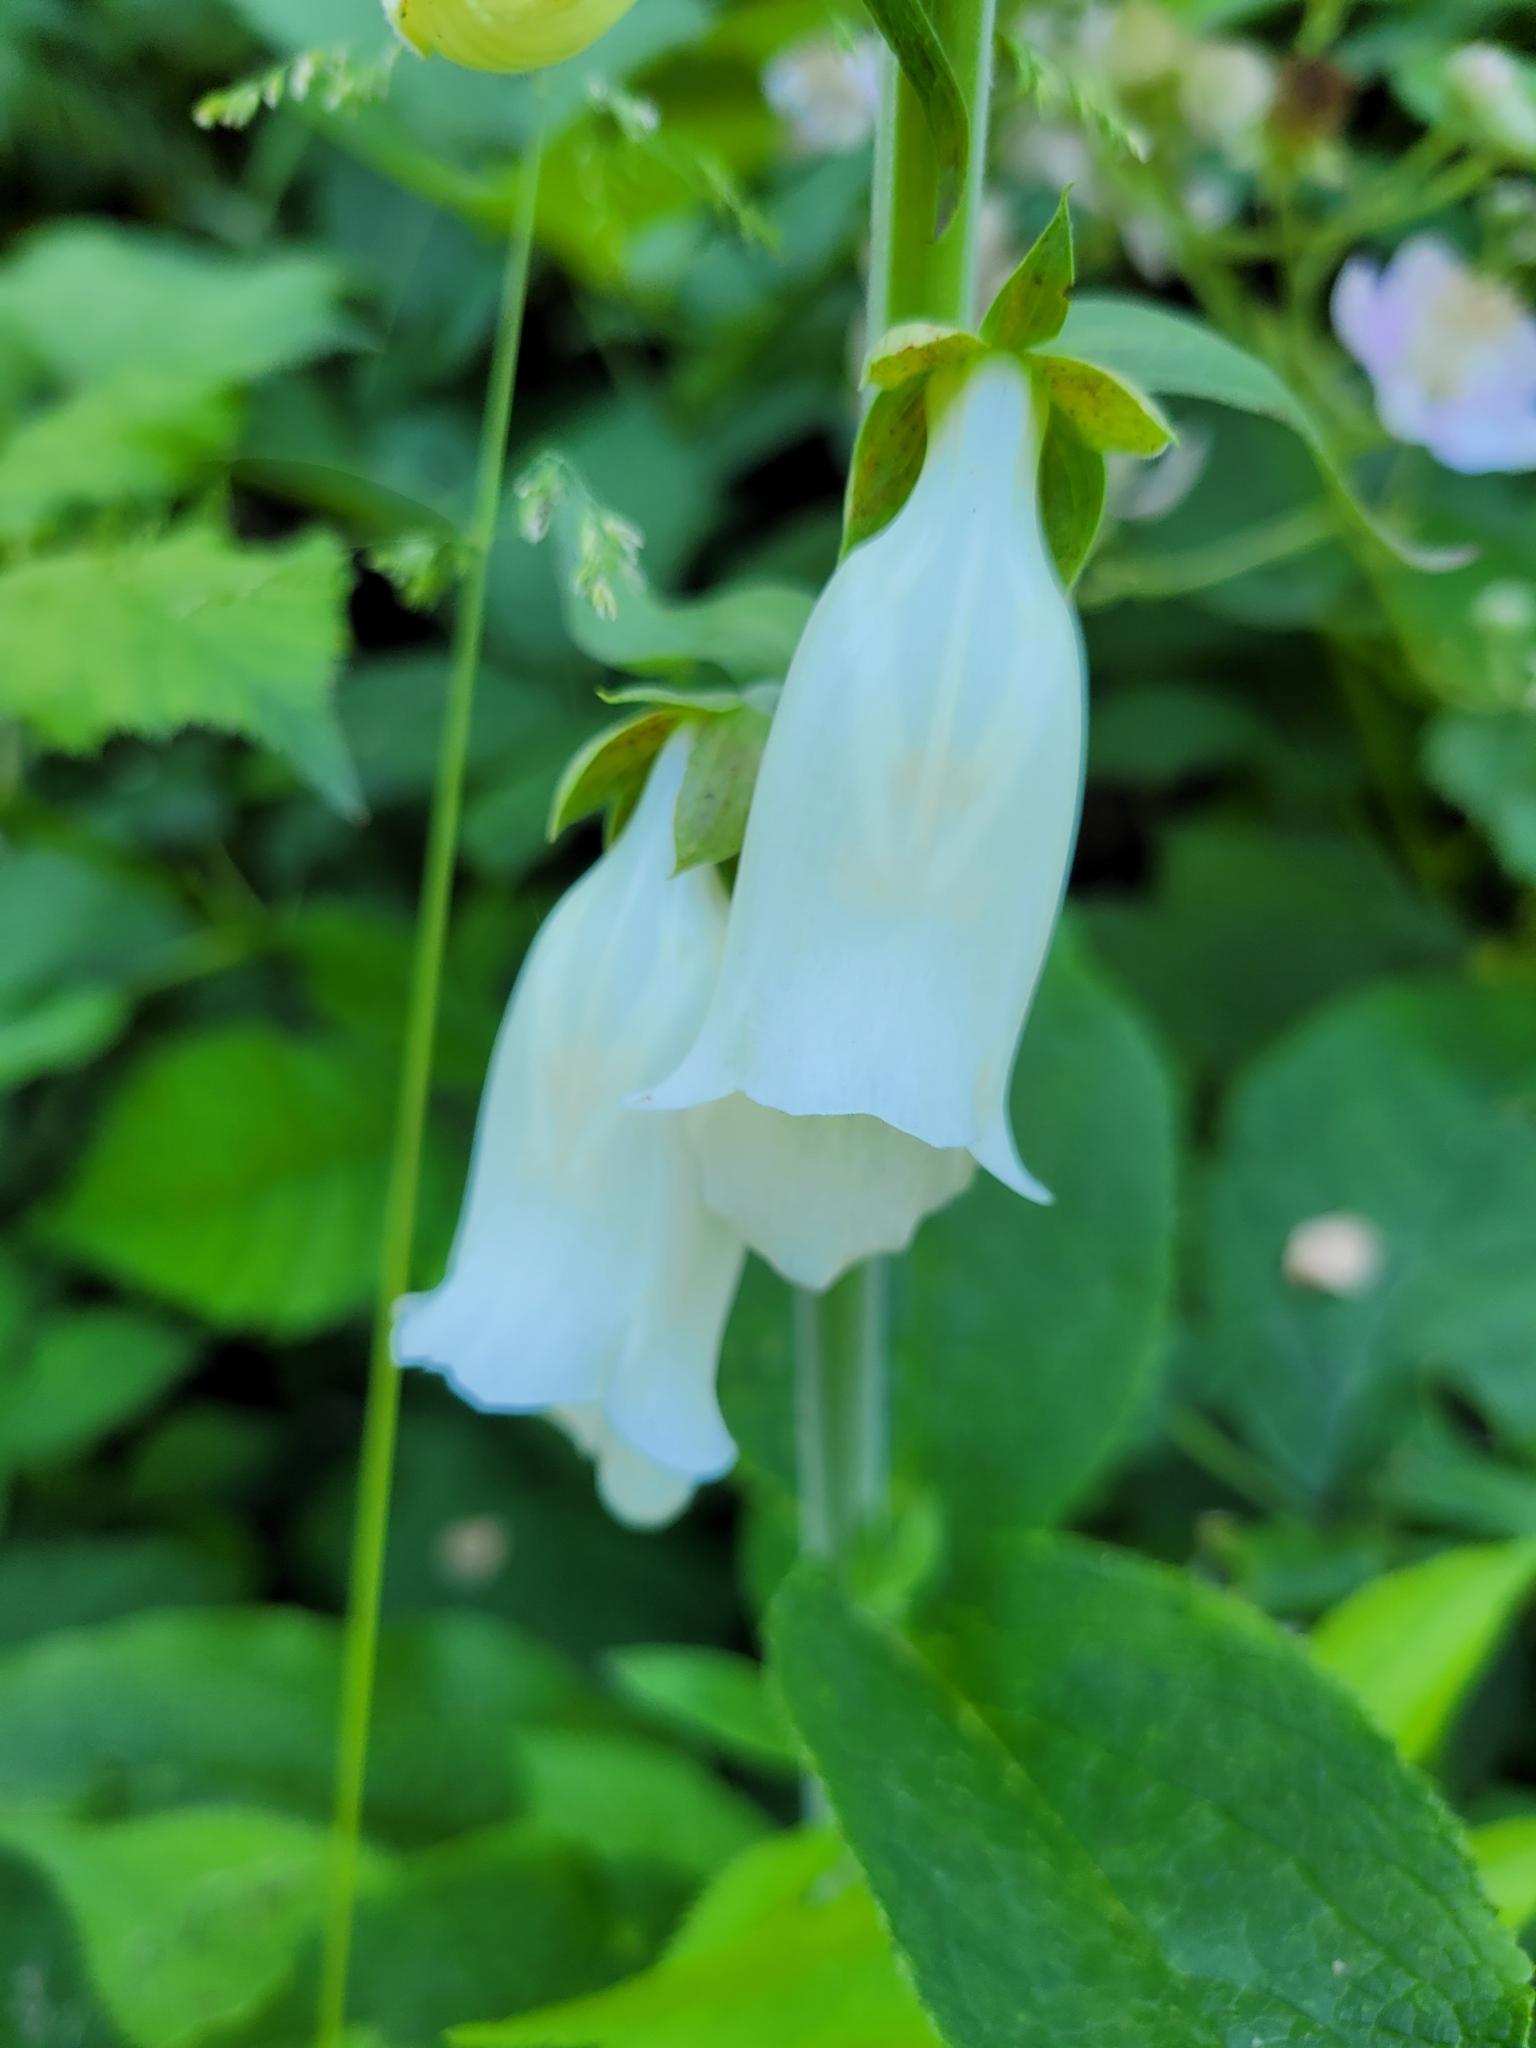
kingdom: Plantae
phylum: Tracheophyta
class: Magnoliopsida
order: Lamiales
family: Plantaginaceae
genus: Digitalis
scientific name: Digitalis purpurea
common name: Foxglove
